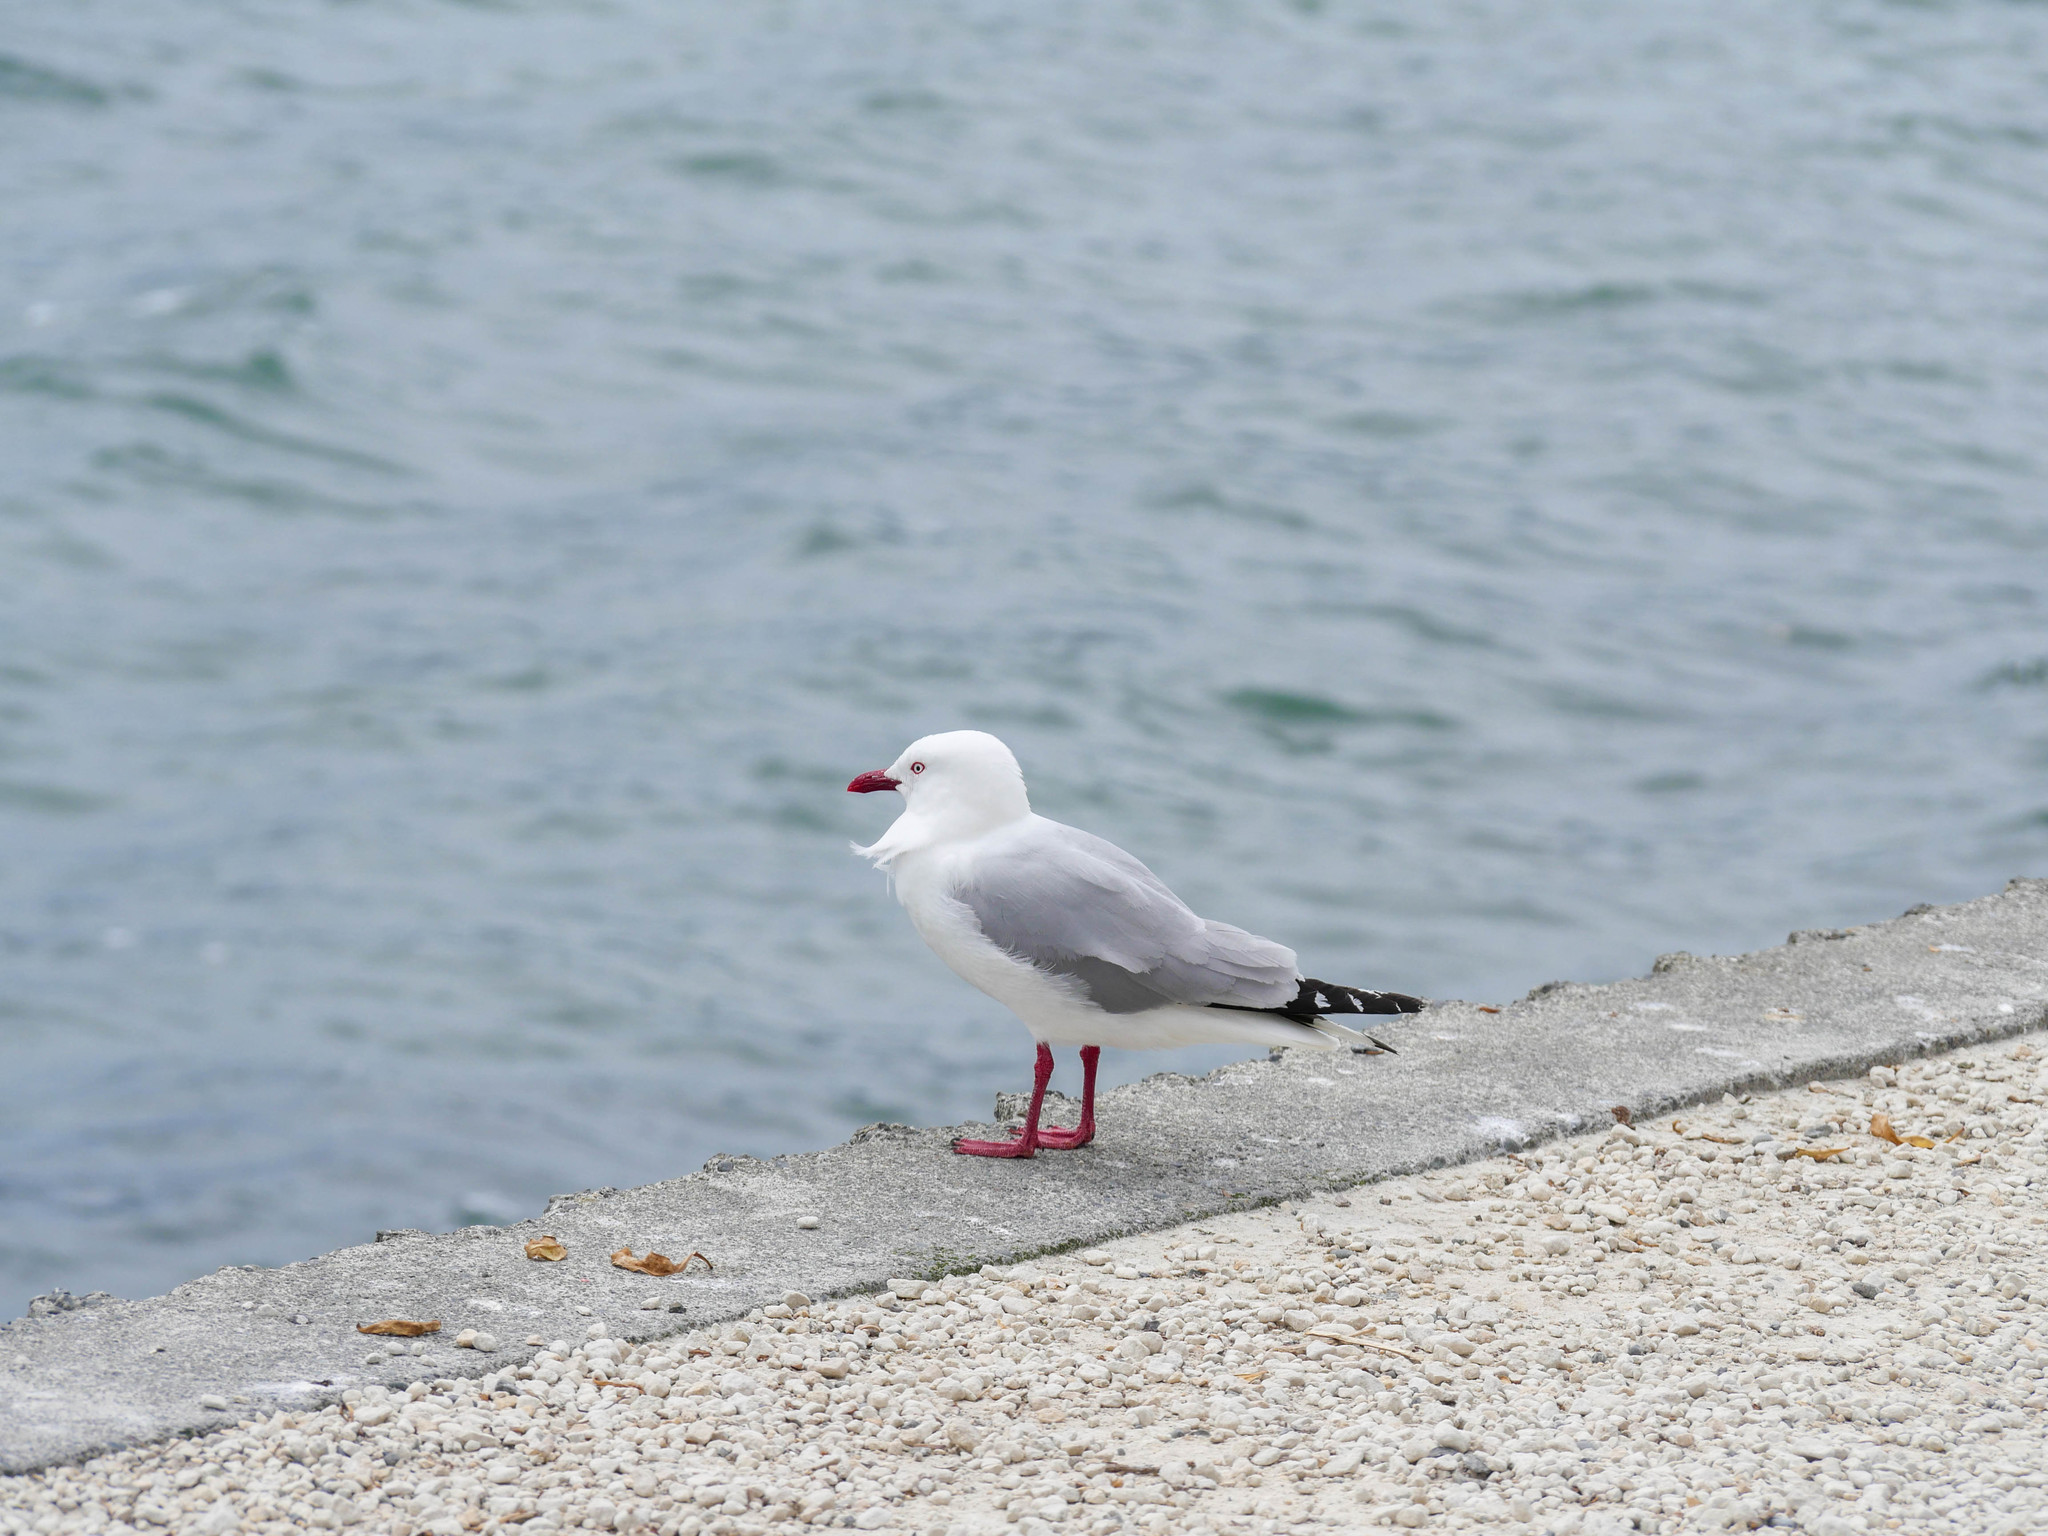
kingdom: Animalia
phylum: Chordata
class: Aves
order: Charadriiformes
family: Laridae
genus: Chroicocephalus
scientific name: Chroicocephalus novaehollandiae
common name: Silver gull
